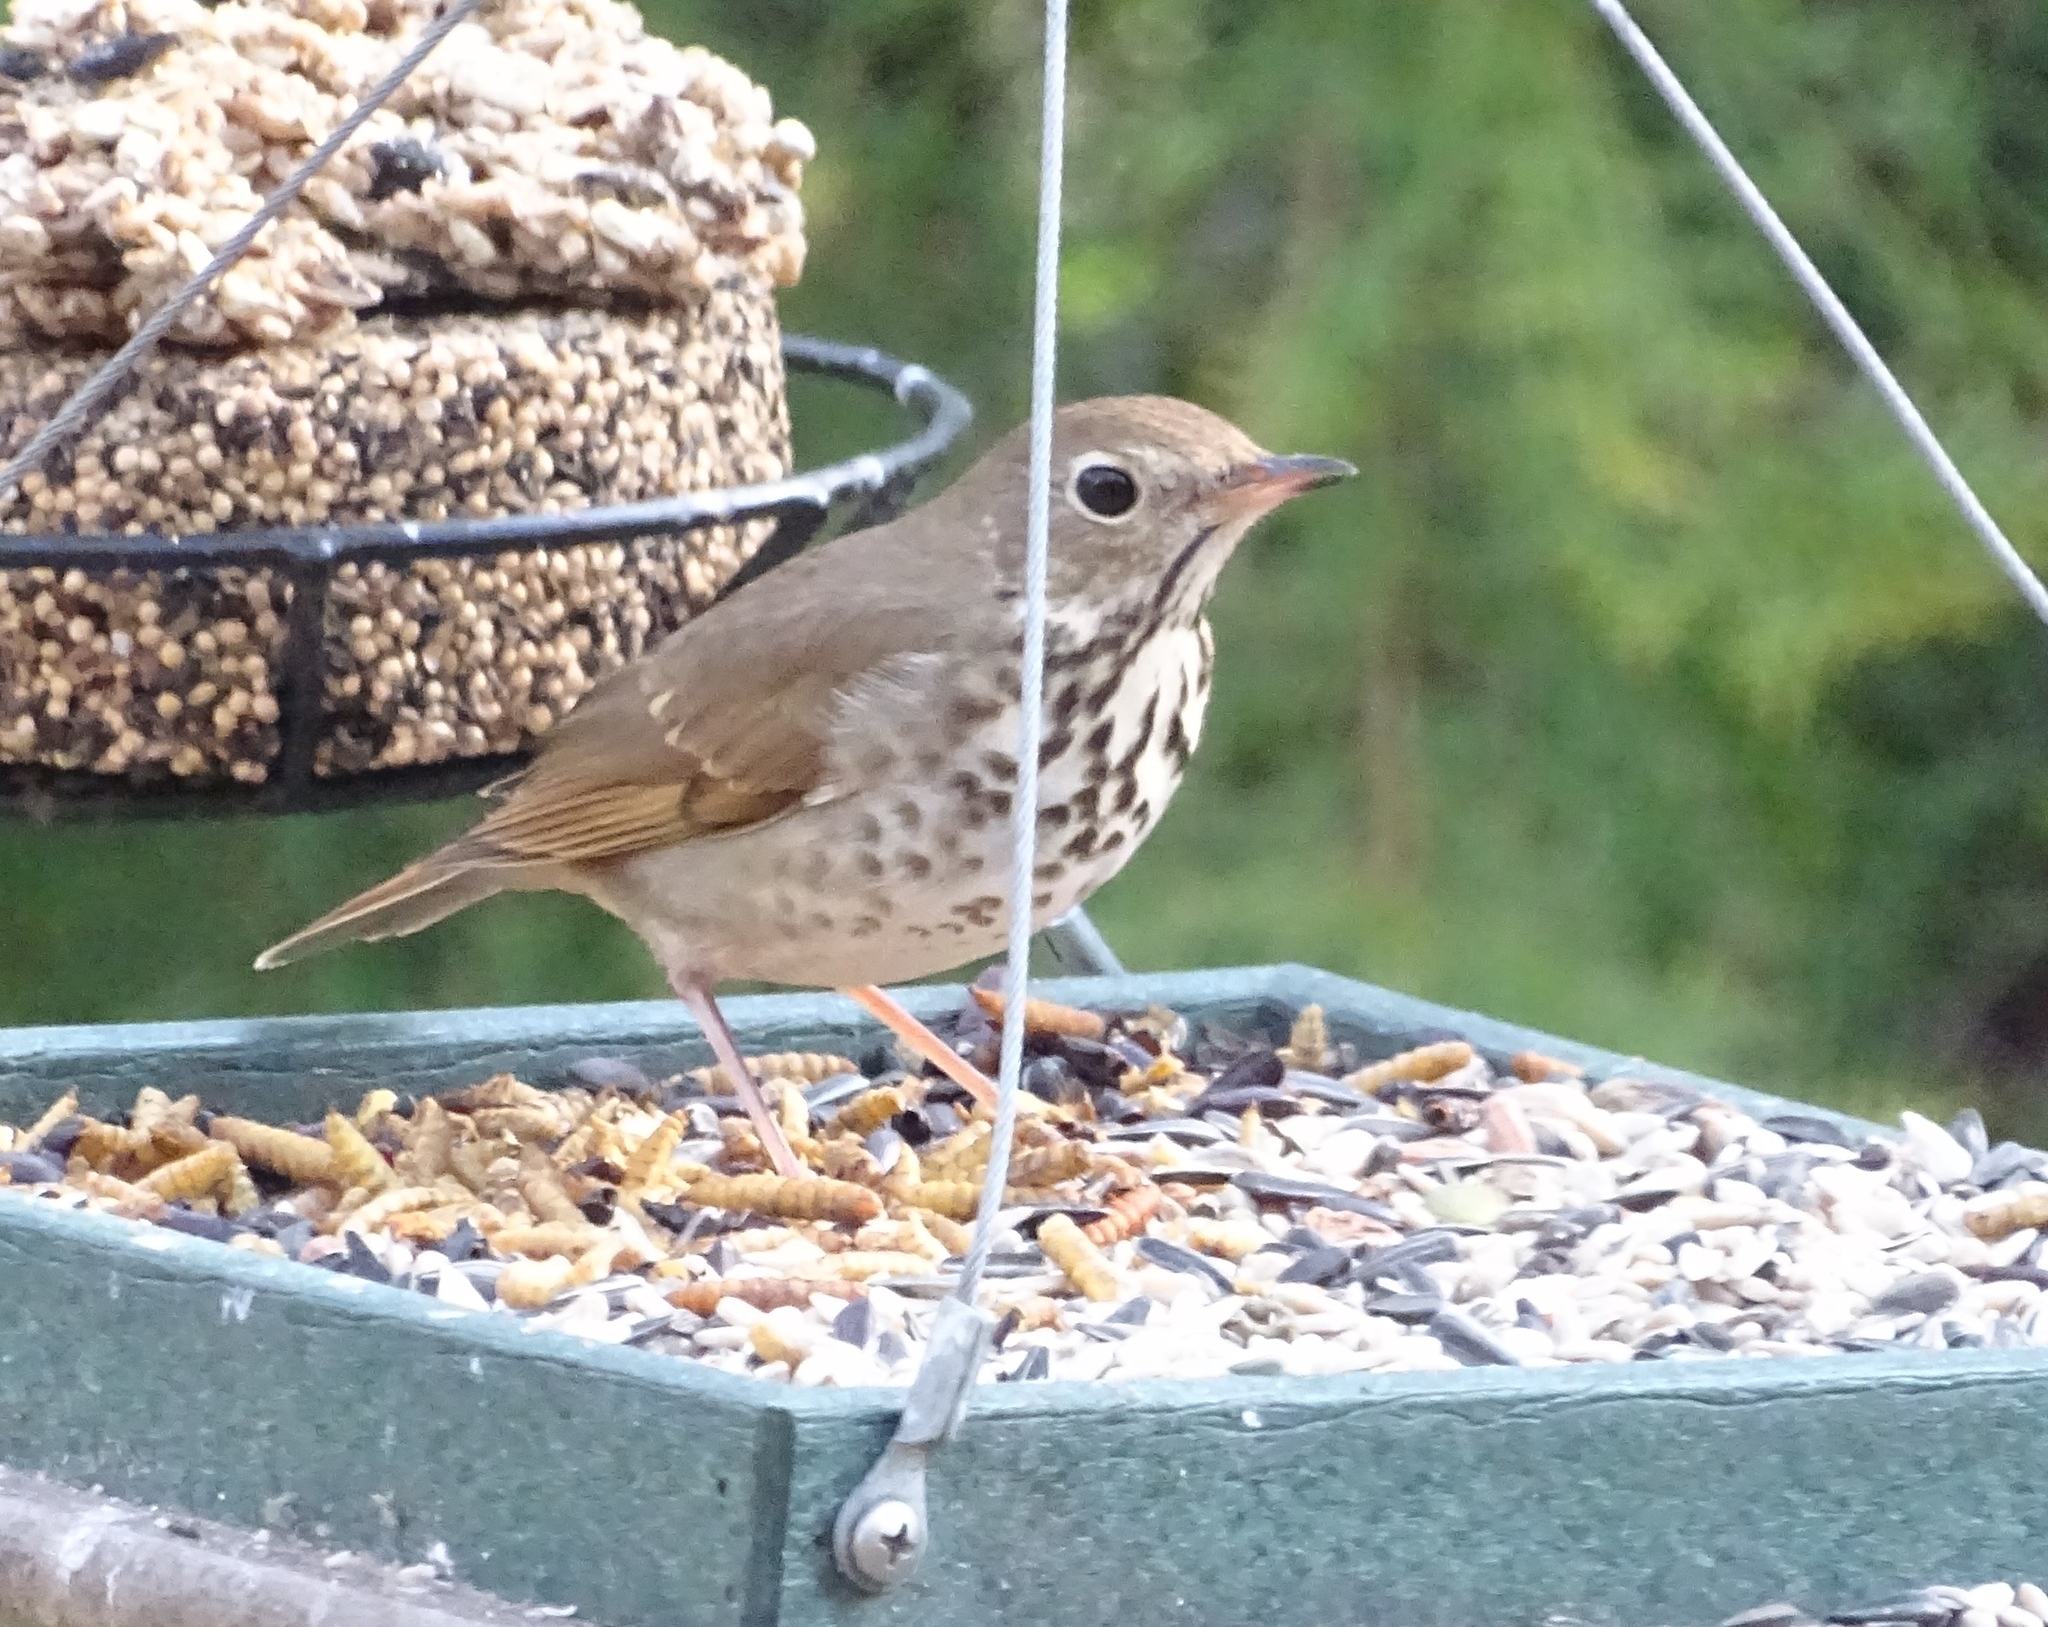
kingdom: Animalia
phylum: Chordata
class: Aves
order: Passeriformes
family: Turdidae
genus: Catharus
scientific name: Catharus guttatus
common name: Hermit thrush
